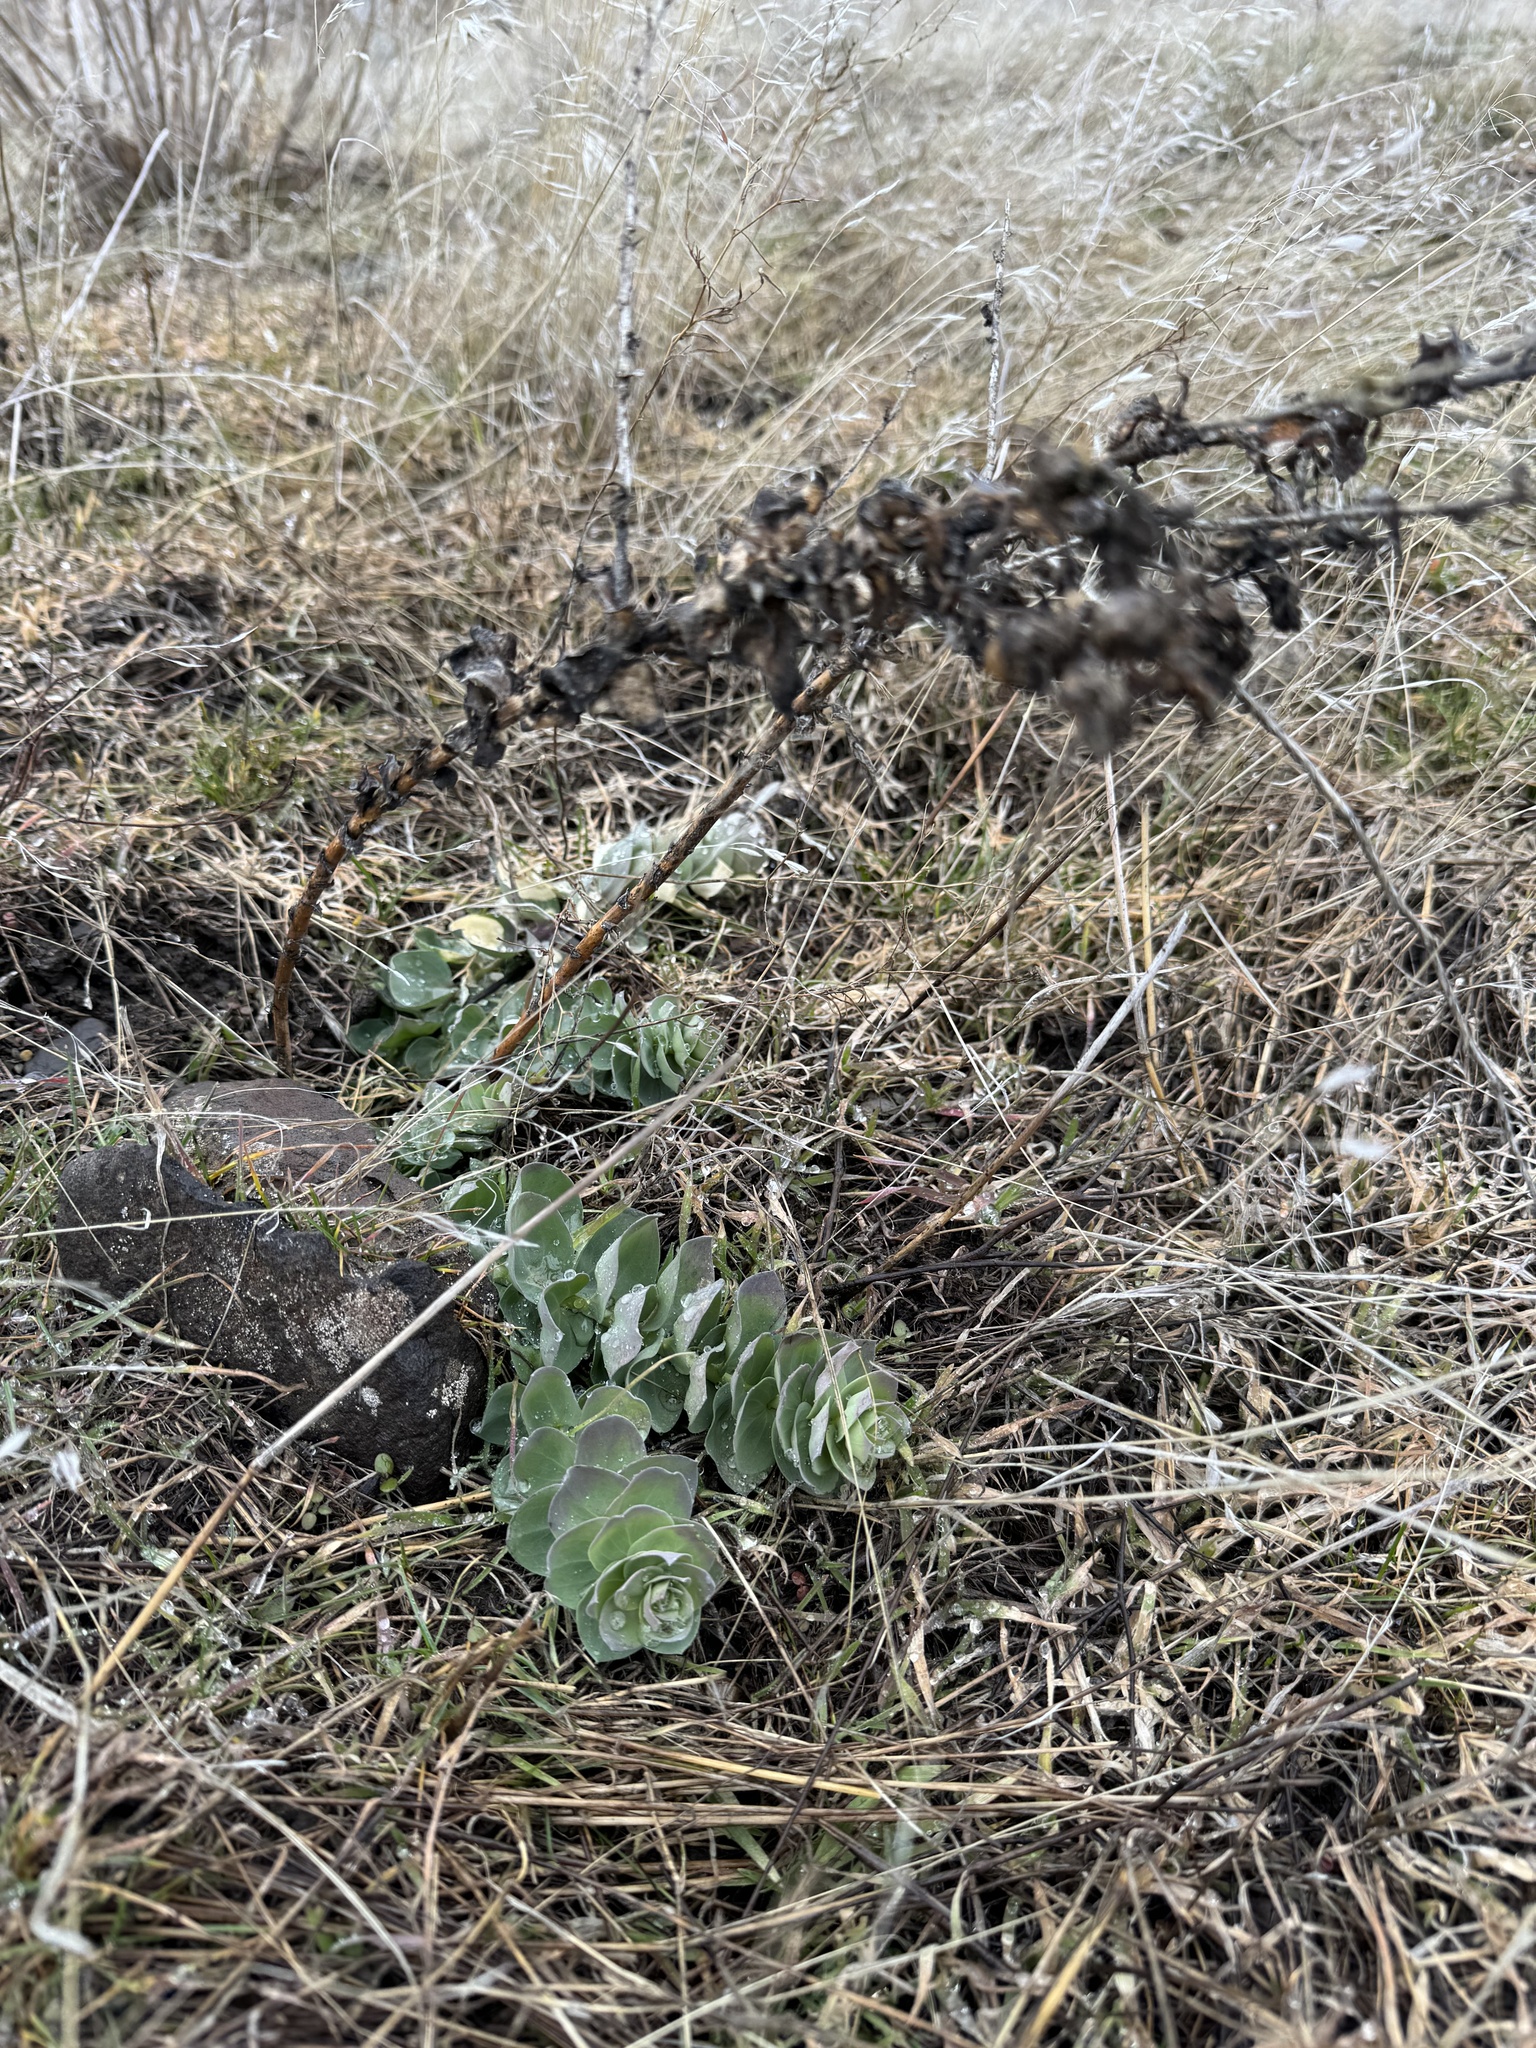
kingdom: Plantae
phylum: Tracheophyta
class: Magnoliopsida
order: Lamiales
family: Plantaginaceae
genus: Linaria
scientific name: Linaria dalmatica
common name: Dalmatian toadflax
